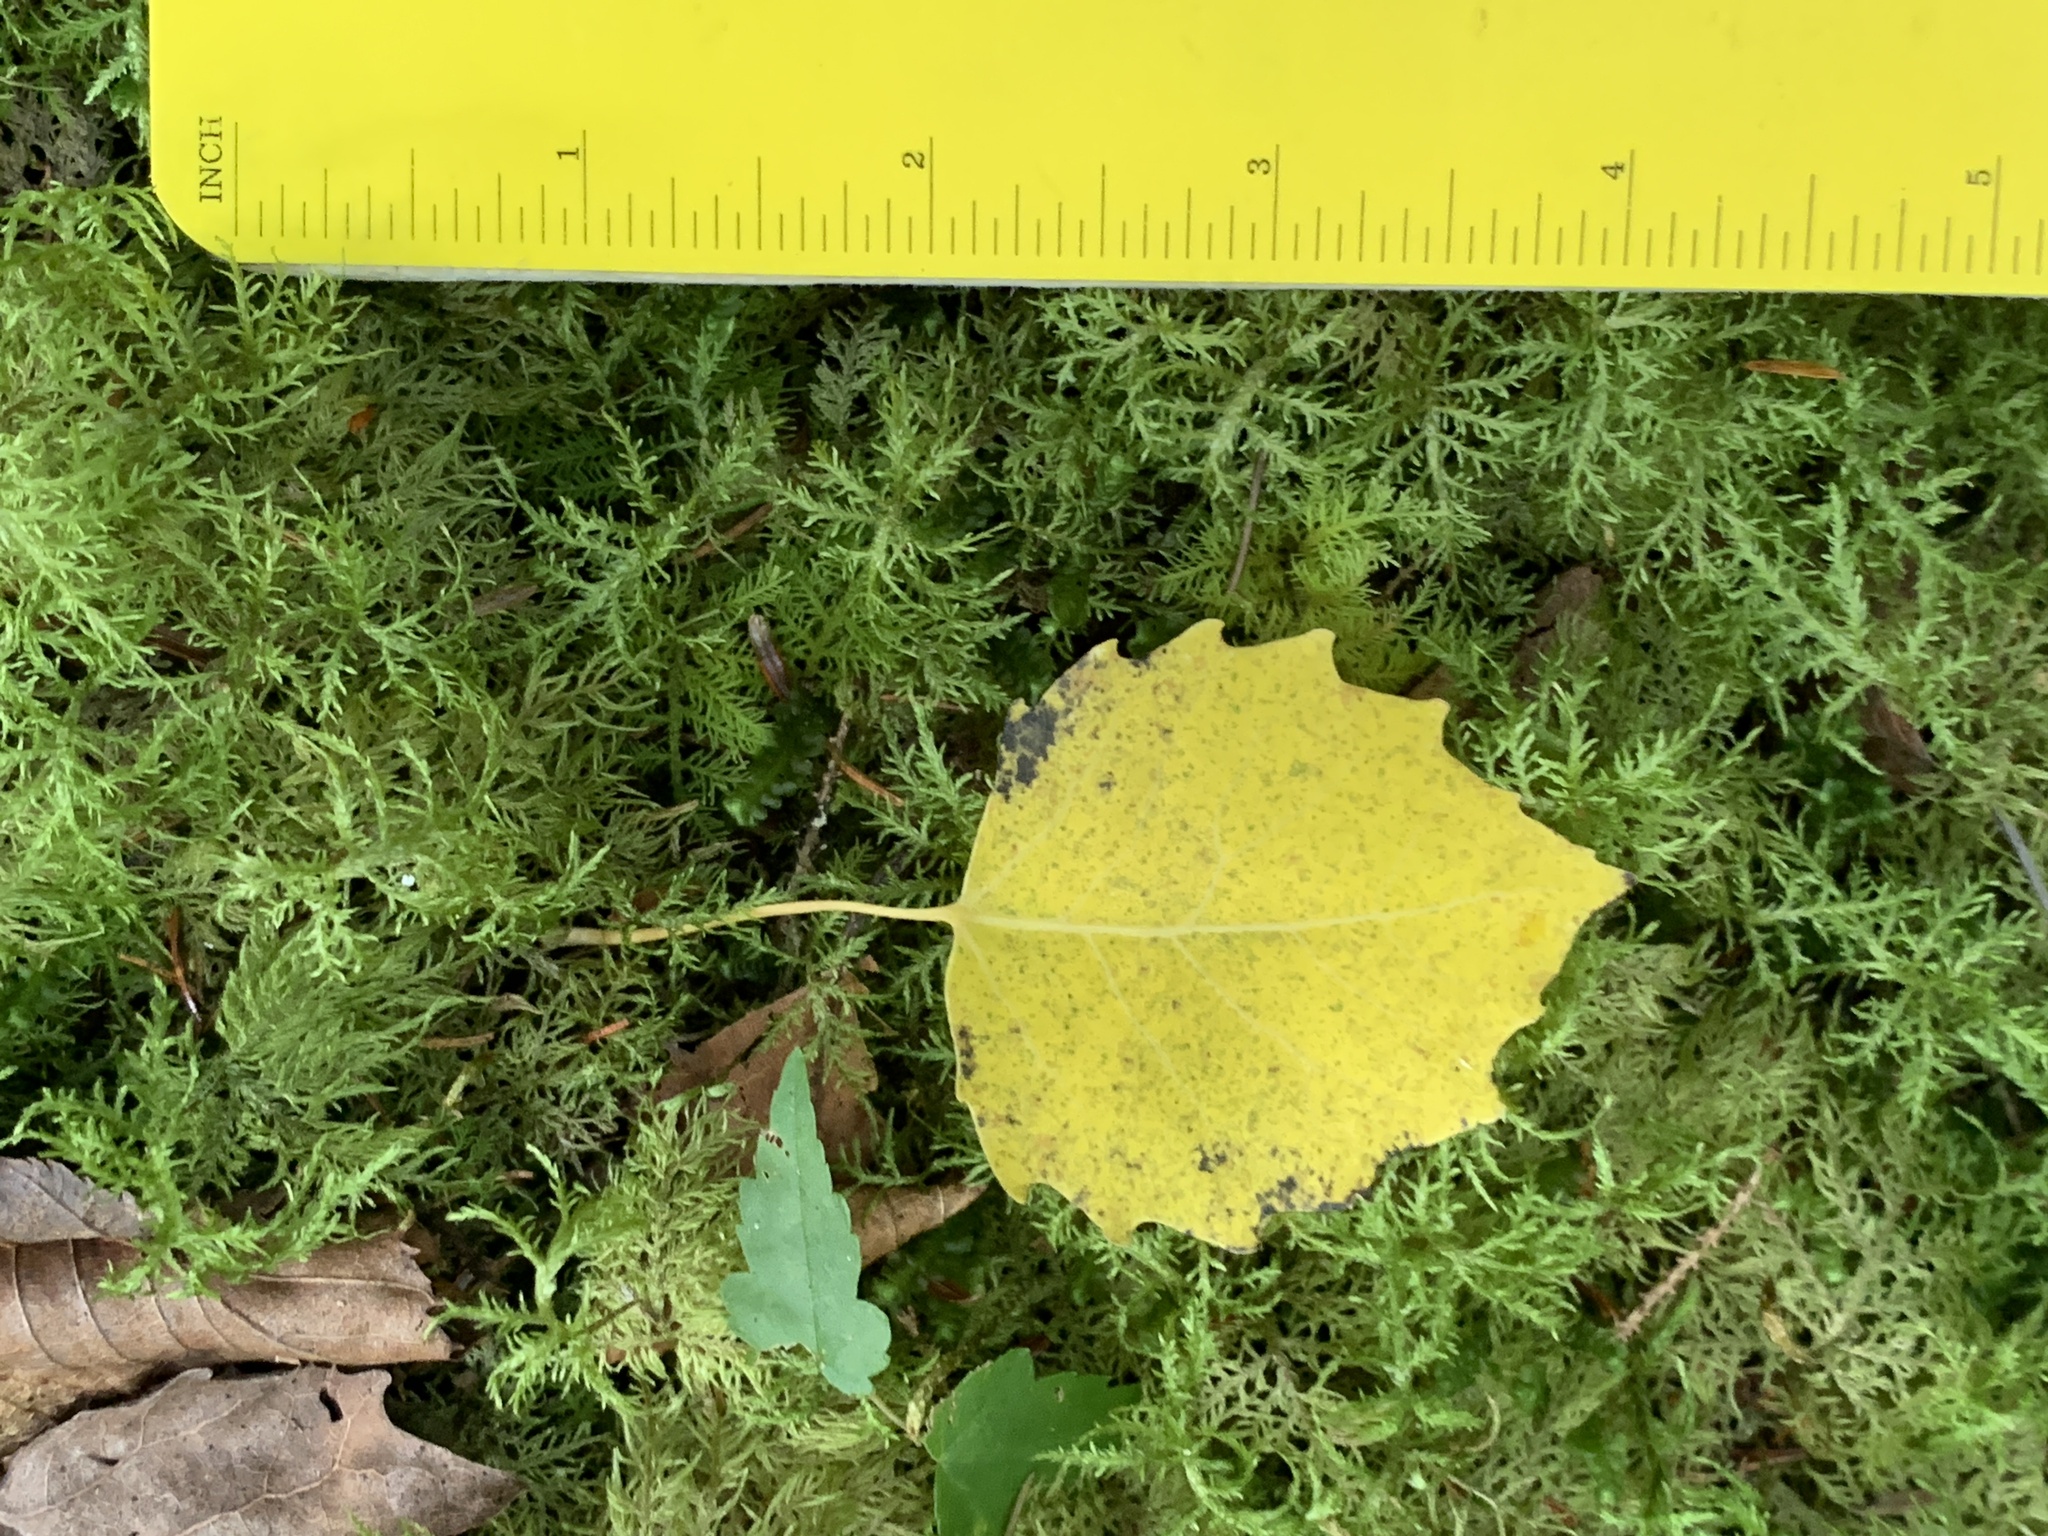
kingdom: Plantae
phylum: Tracheophyta
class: Magnoliopsida
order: Malpighiales
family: Salicaceae
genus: Populus
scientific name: Populus grandidentata
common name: Bigtooth aspen
